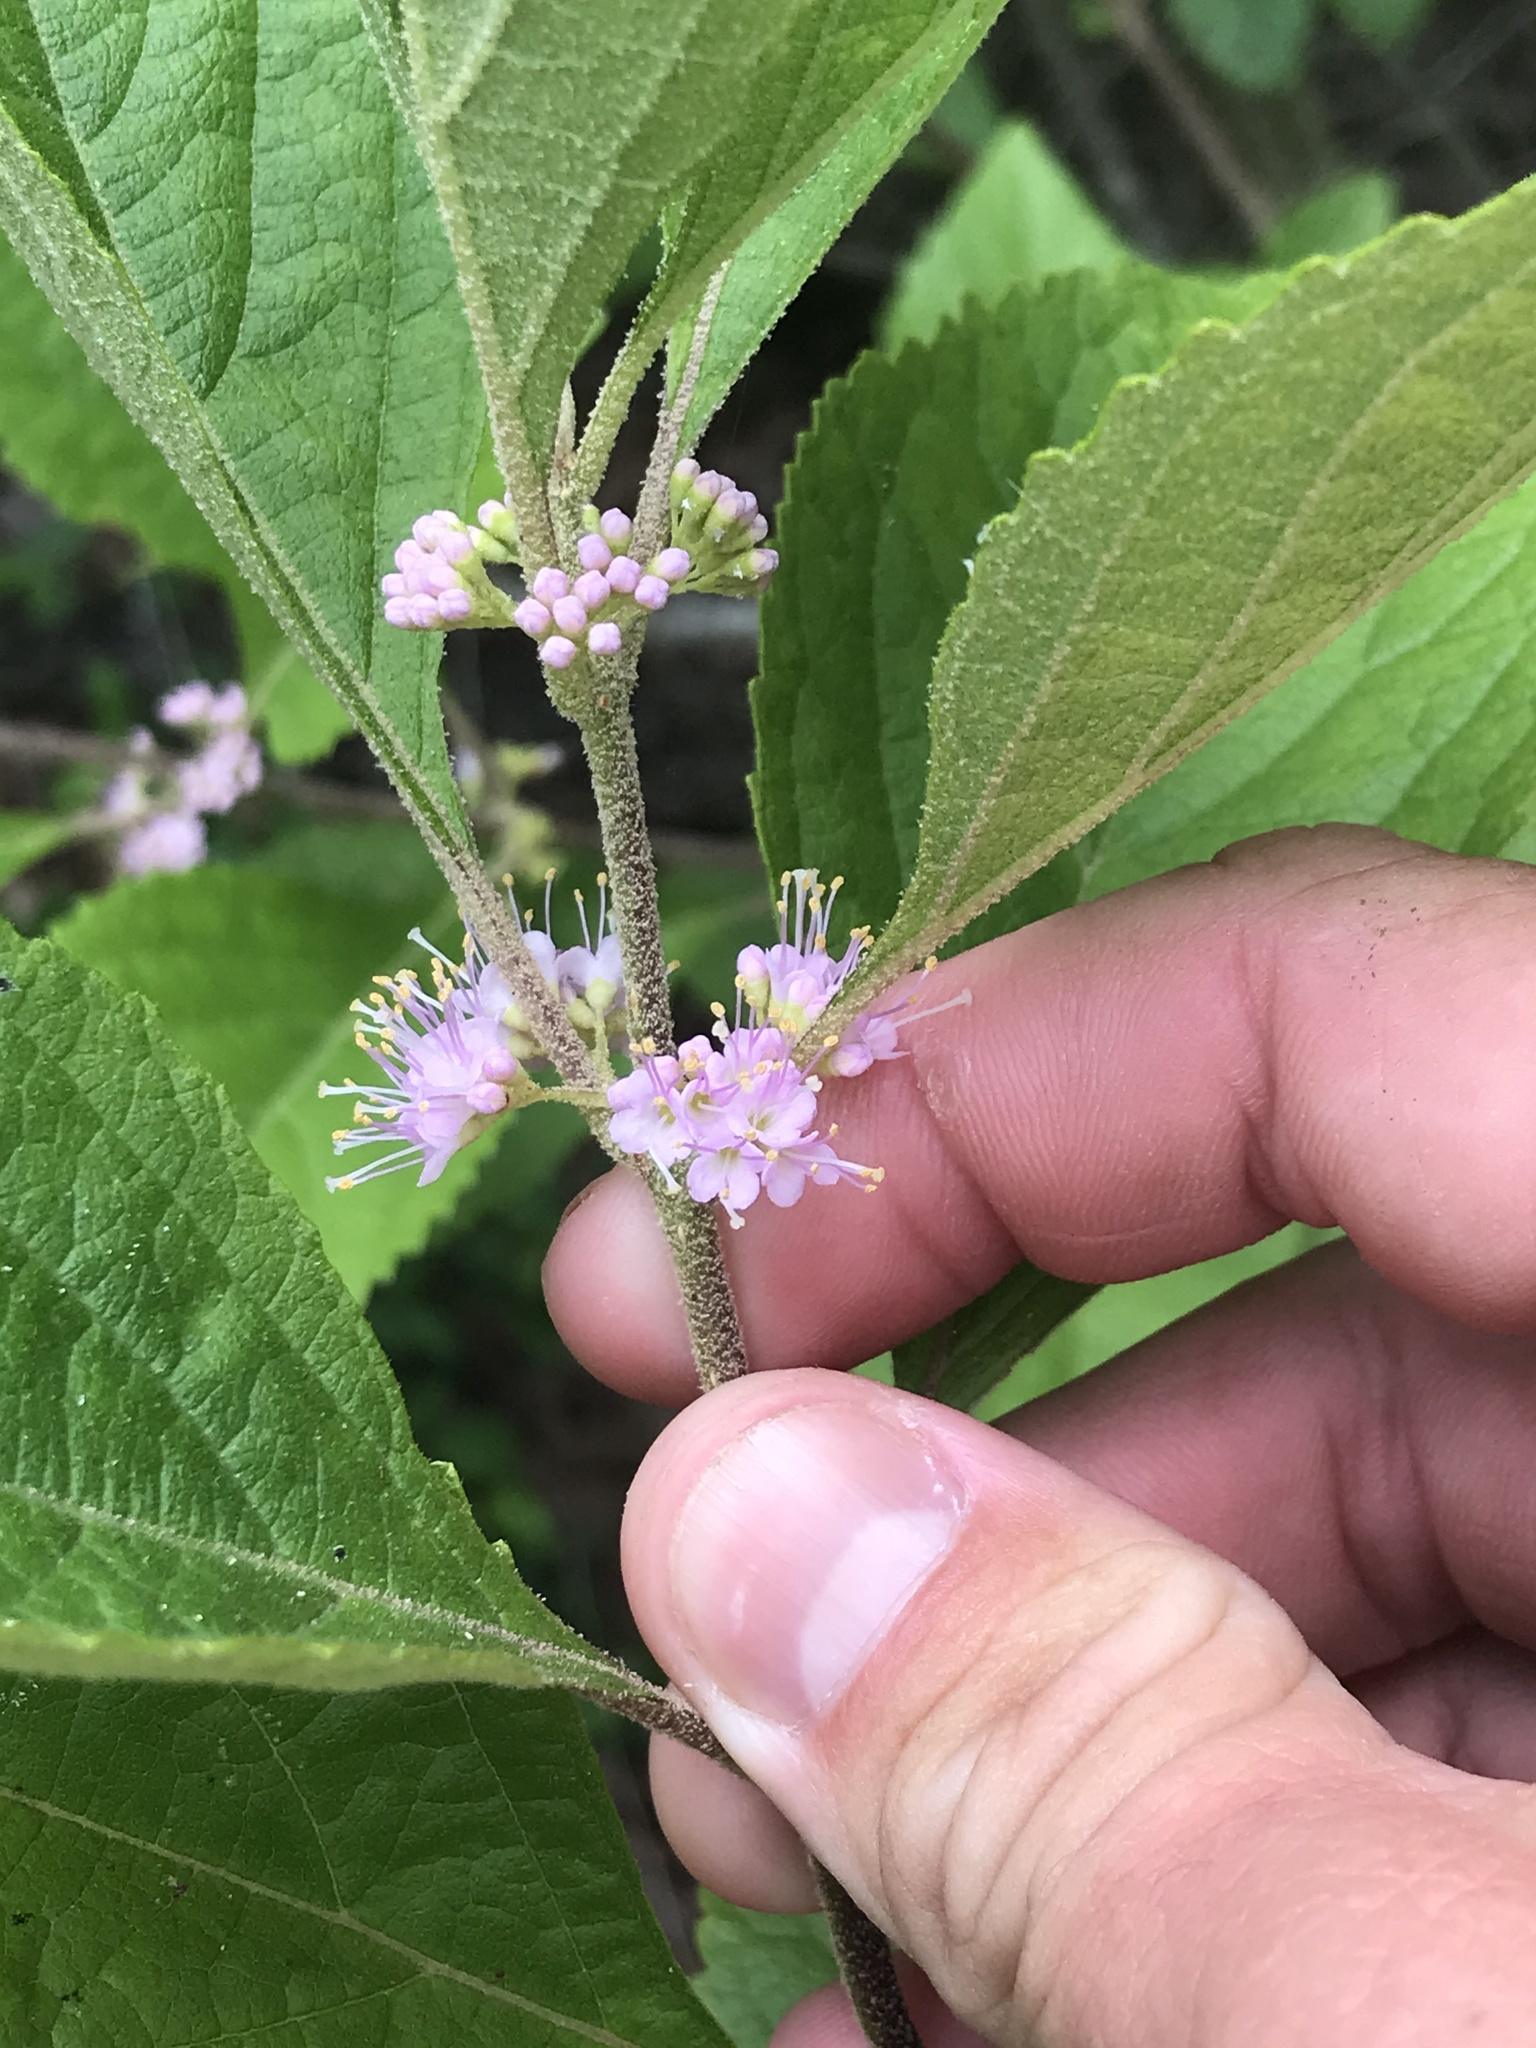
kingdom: Plantae
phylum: Tracheophyta
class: Magnoliopsida
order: Lamiales
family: Lamiaceae
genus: Callicarpa
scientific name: Callicarpa americana
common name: American beautyberry
